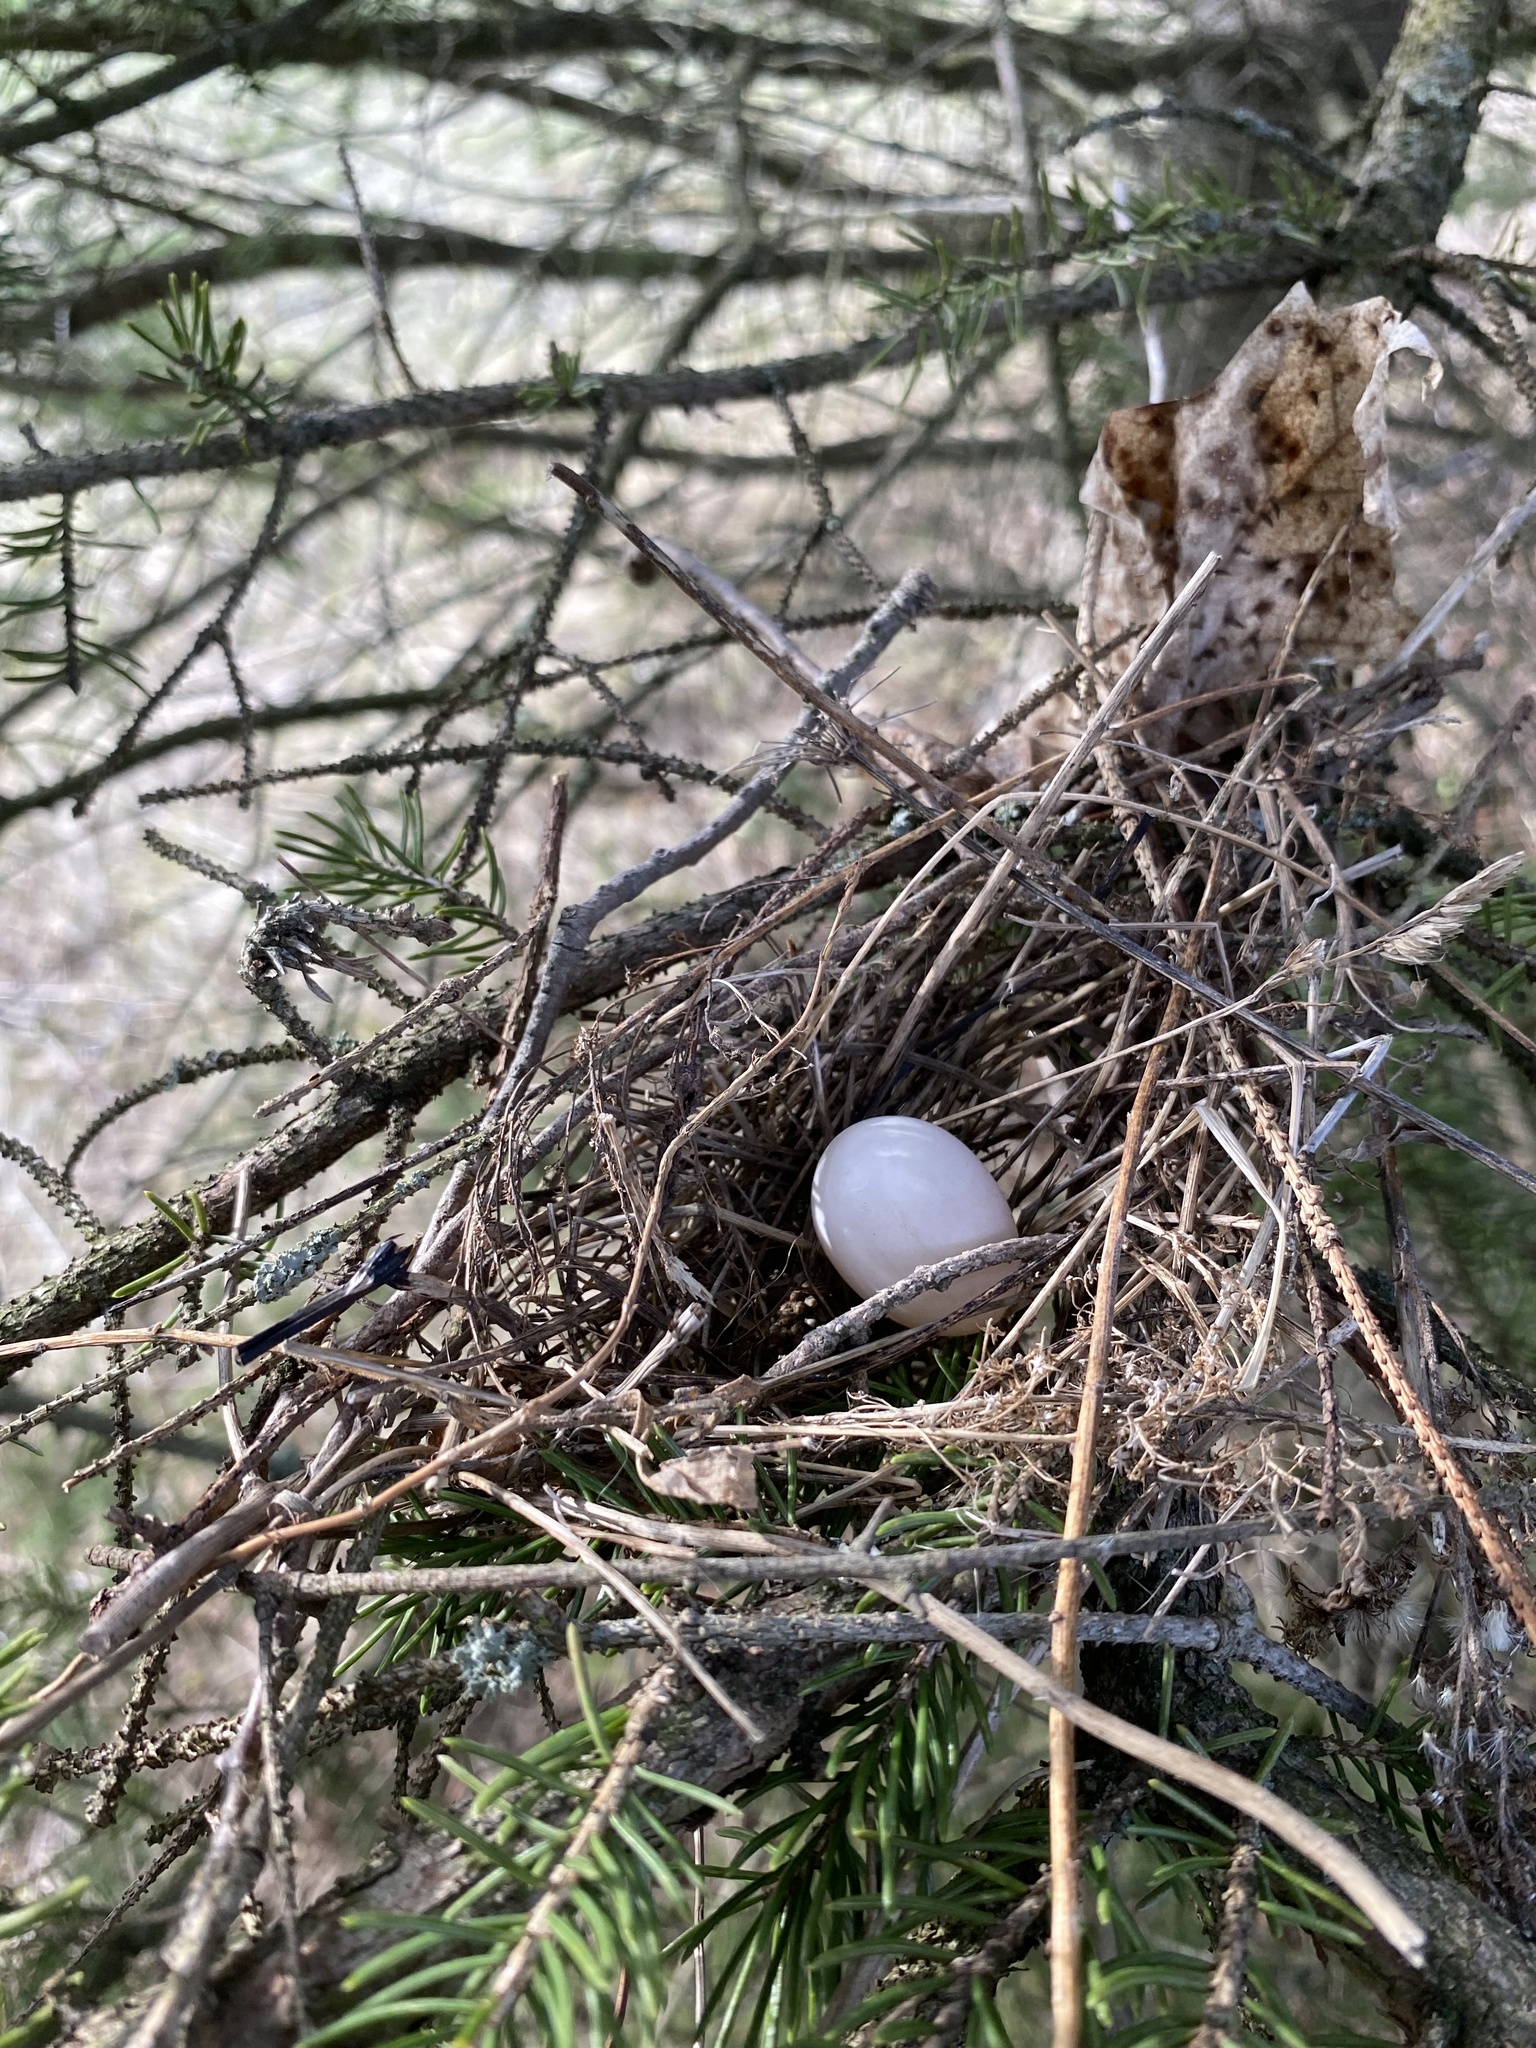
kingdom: Animalia
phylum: Chordata
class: Aves
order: Columbiformes
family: Columbidae
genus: Zenaida
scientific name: Zenaida macroura
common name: Mourning dove
